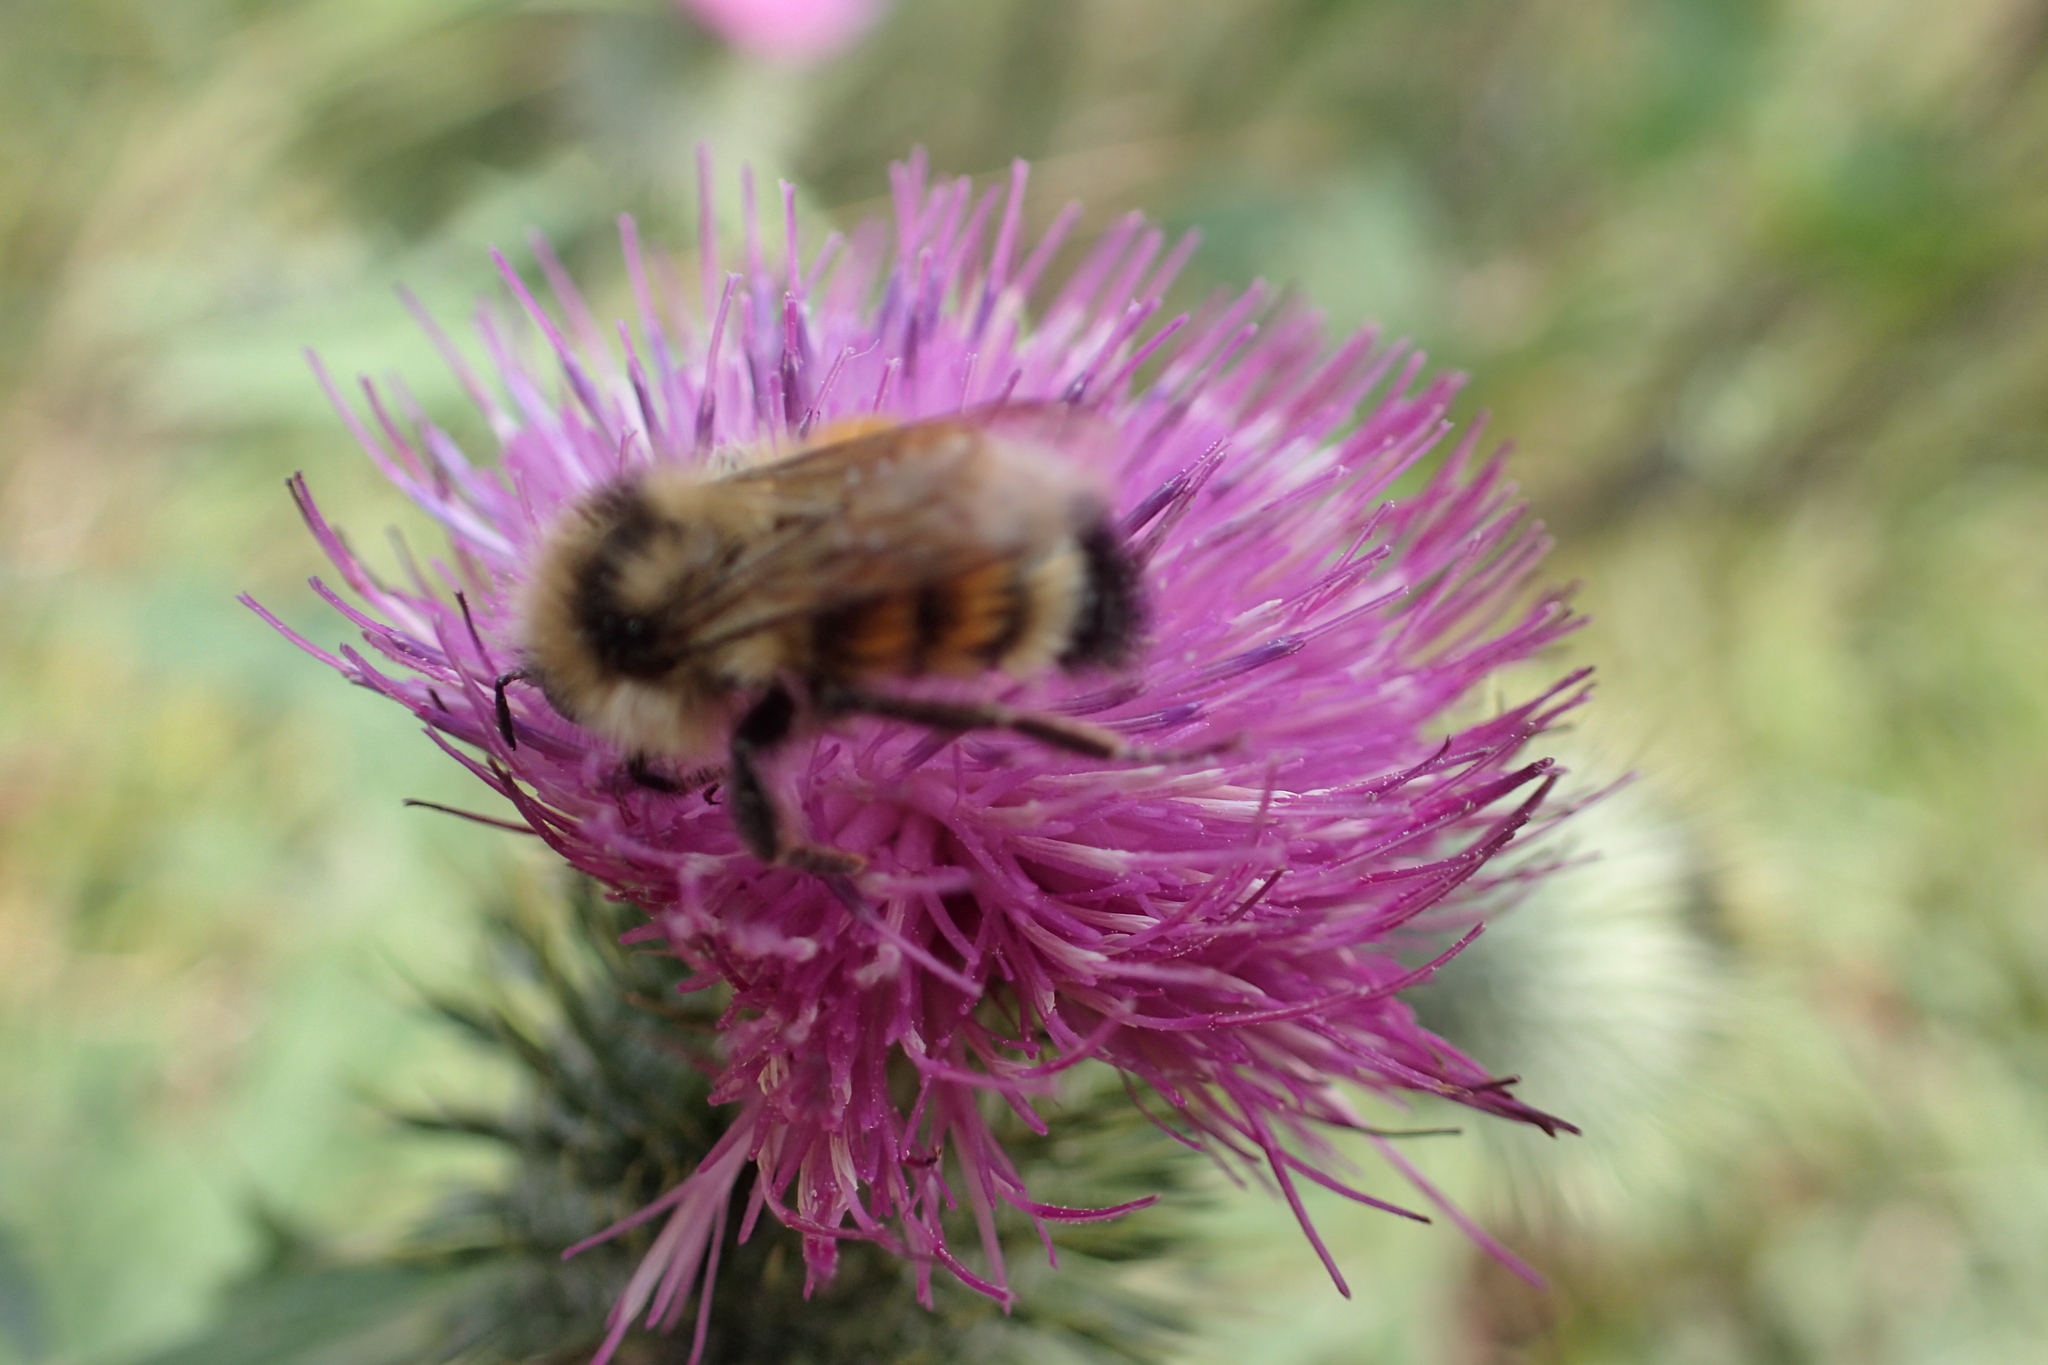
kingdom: Animalia
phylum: Arthropoda
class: Insecta
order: Hymenoptera
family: Apidae
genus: Bombus
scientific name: Bombus ternarius
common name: Tri-colored bumble bee
